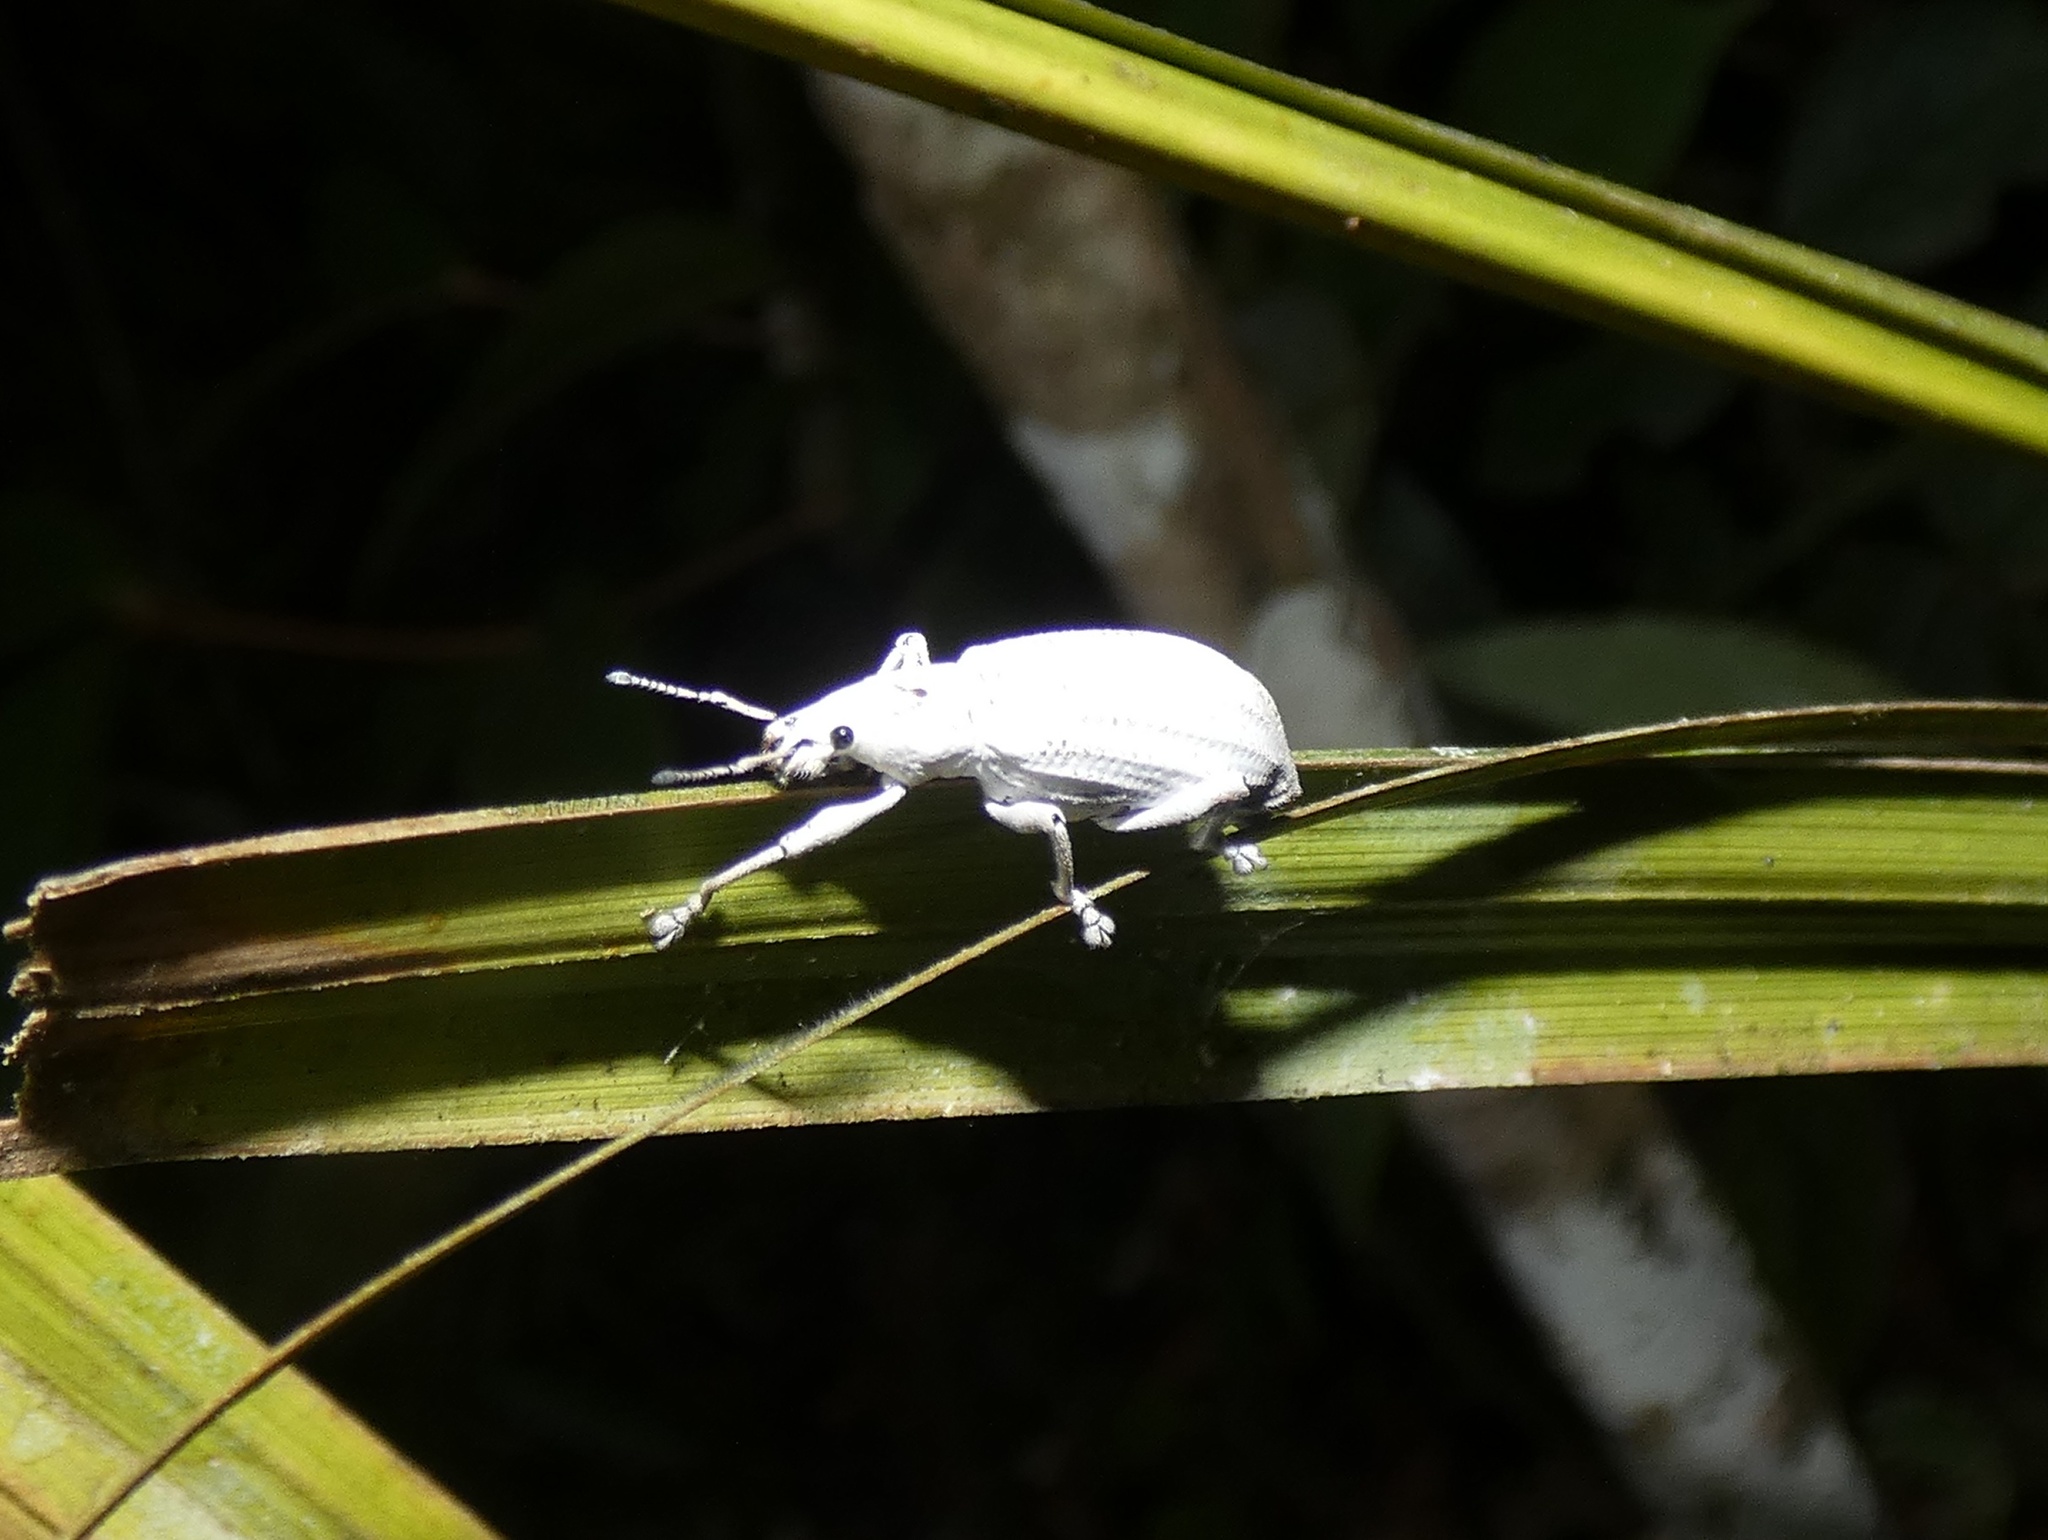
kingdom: Animalia
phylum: Arthropoda
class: Insecta
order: Coleoptera
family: Curculionidae
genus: Compsus
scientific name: Compsus auricephalus
